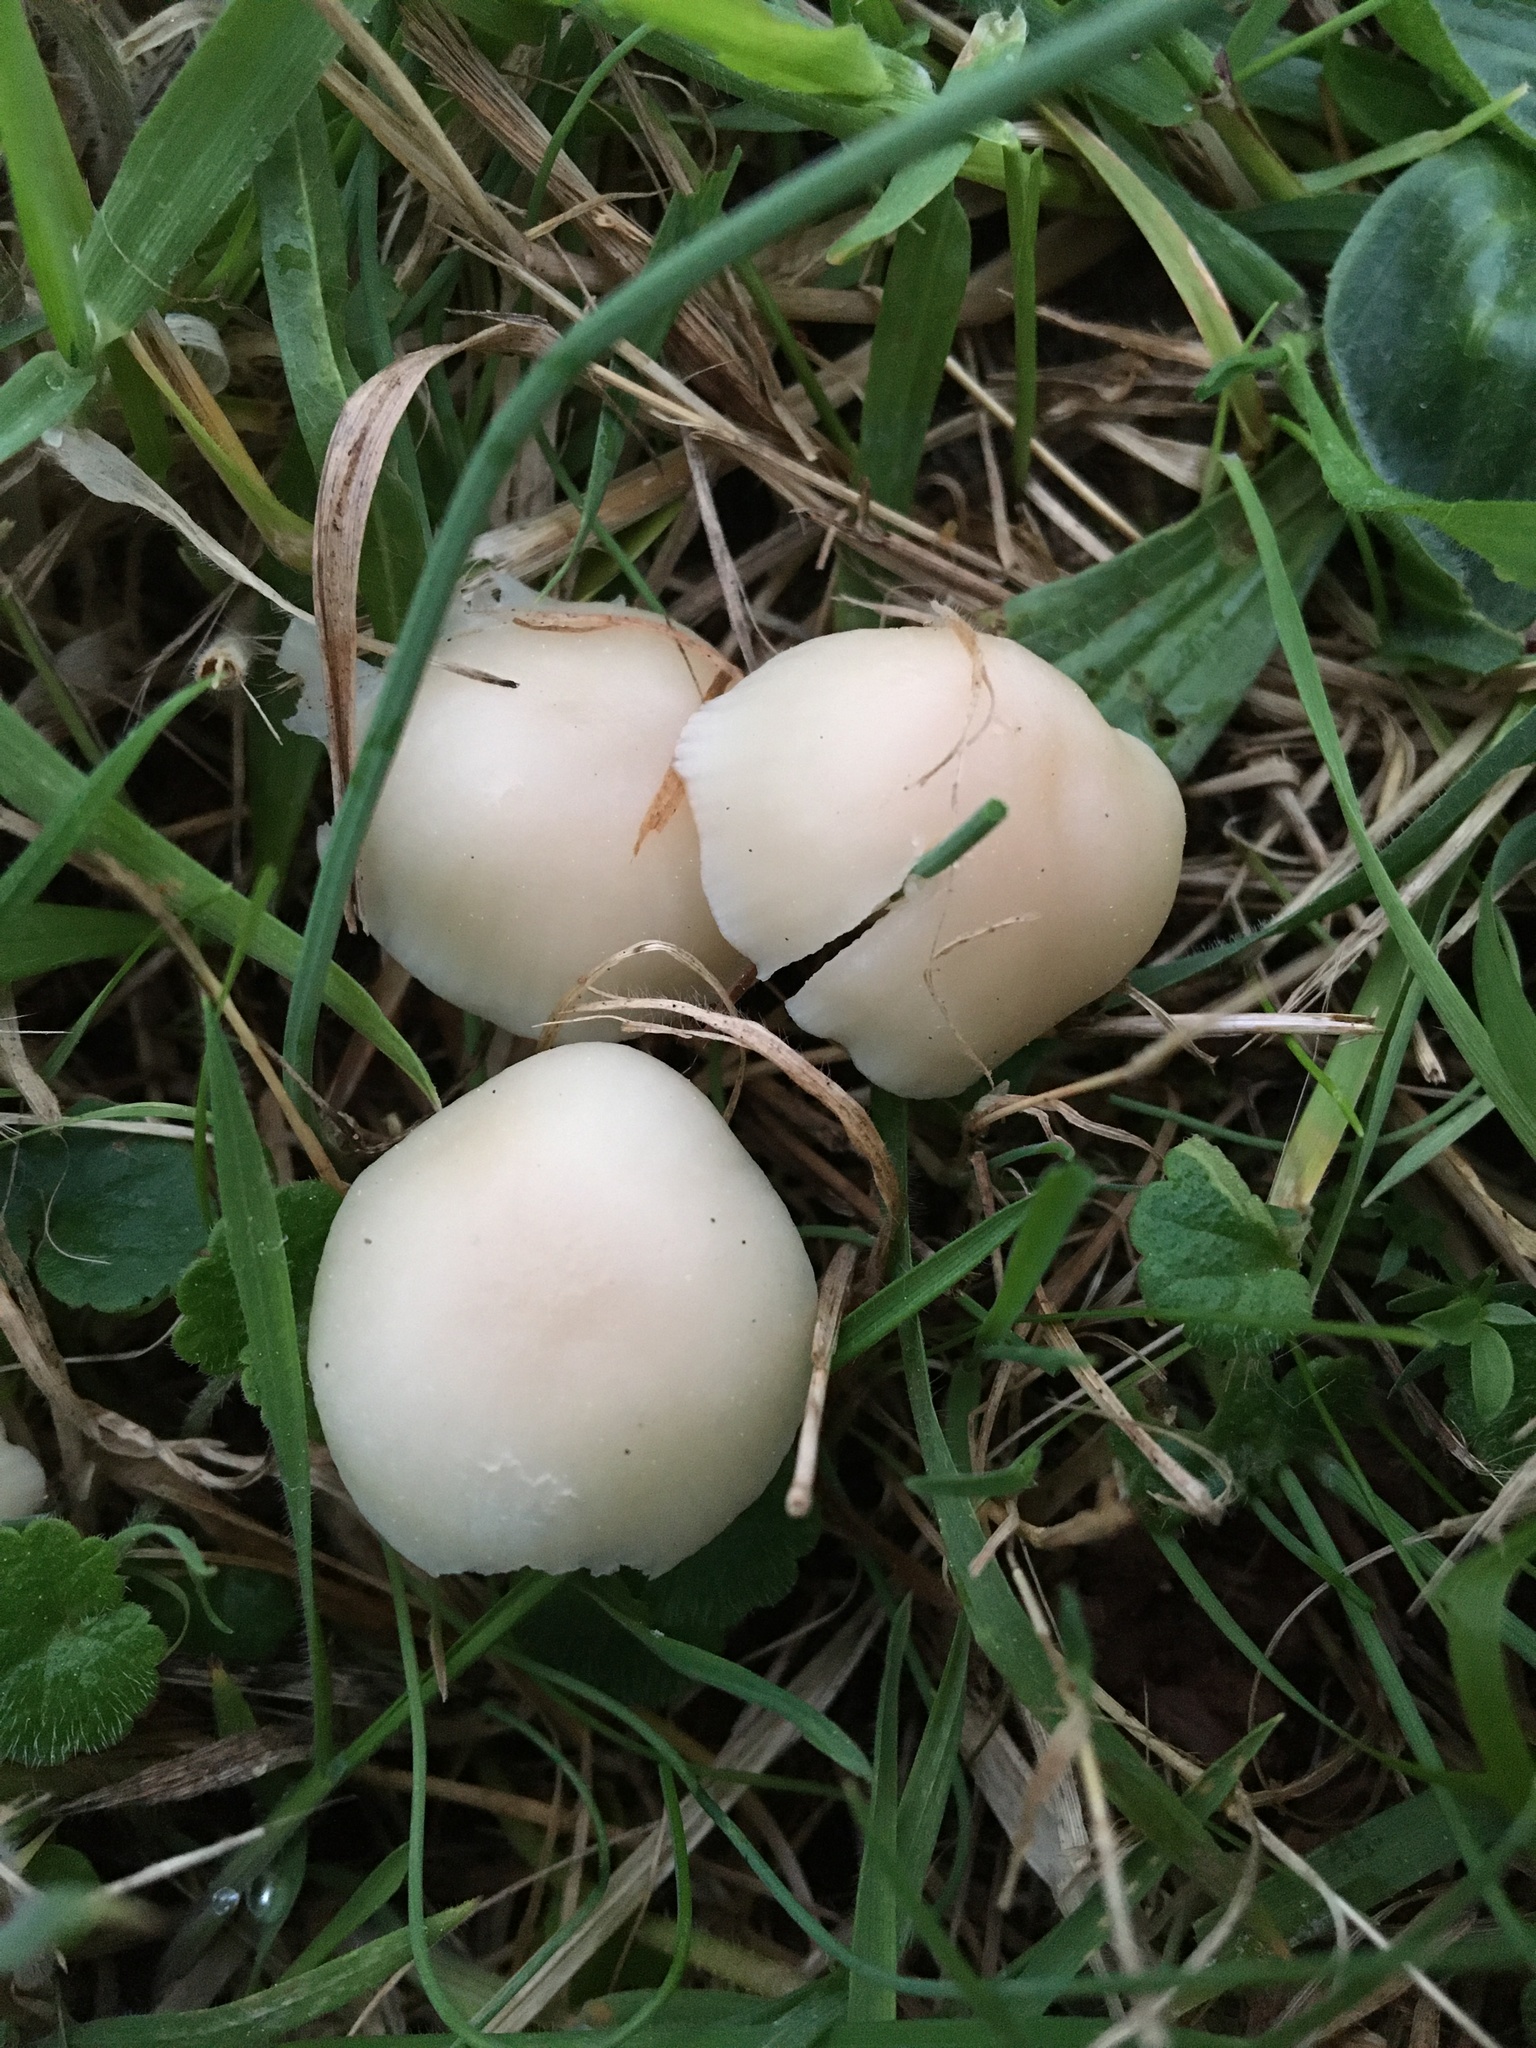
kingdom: Fungi
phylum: Basidiomycota
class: Agaricomycetes
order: Agaricales
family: Hygrophoraceae
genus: Cuphophyllus
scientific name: Cuphophyllus virgineus
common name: Snowy waxcap
